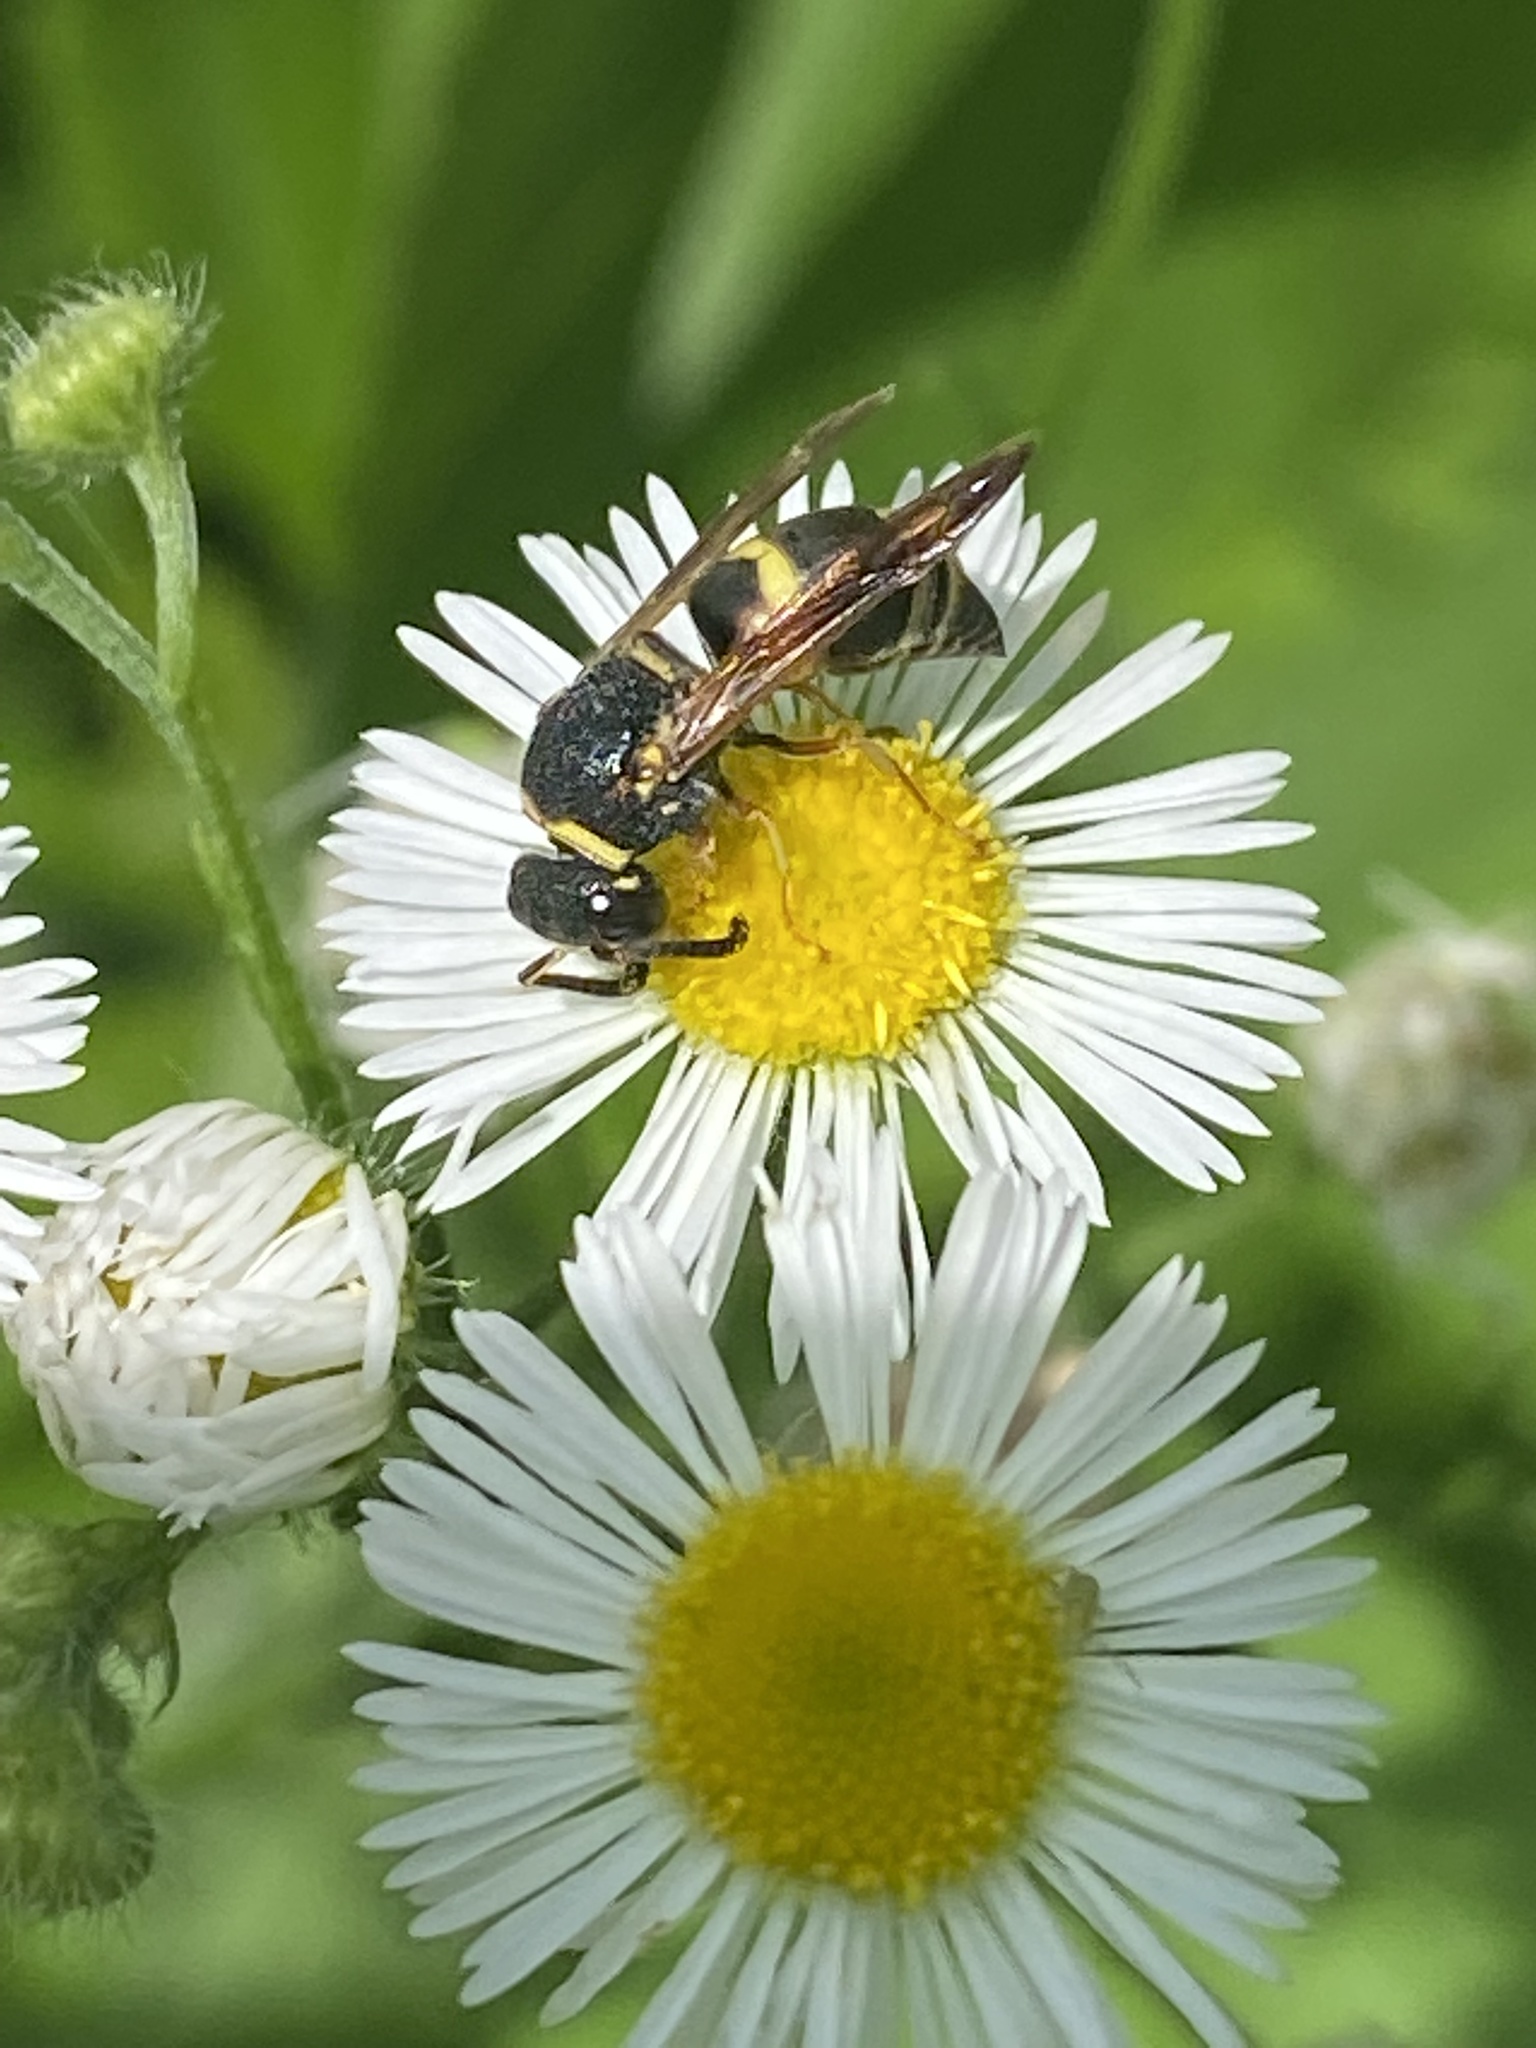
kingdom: Animalia
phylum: Arthropoda
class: Insecta
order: Hymenoptera
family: Eumenidae
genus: Euodynerus
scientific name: Euodynerus hidalgo
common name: Wasp
